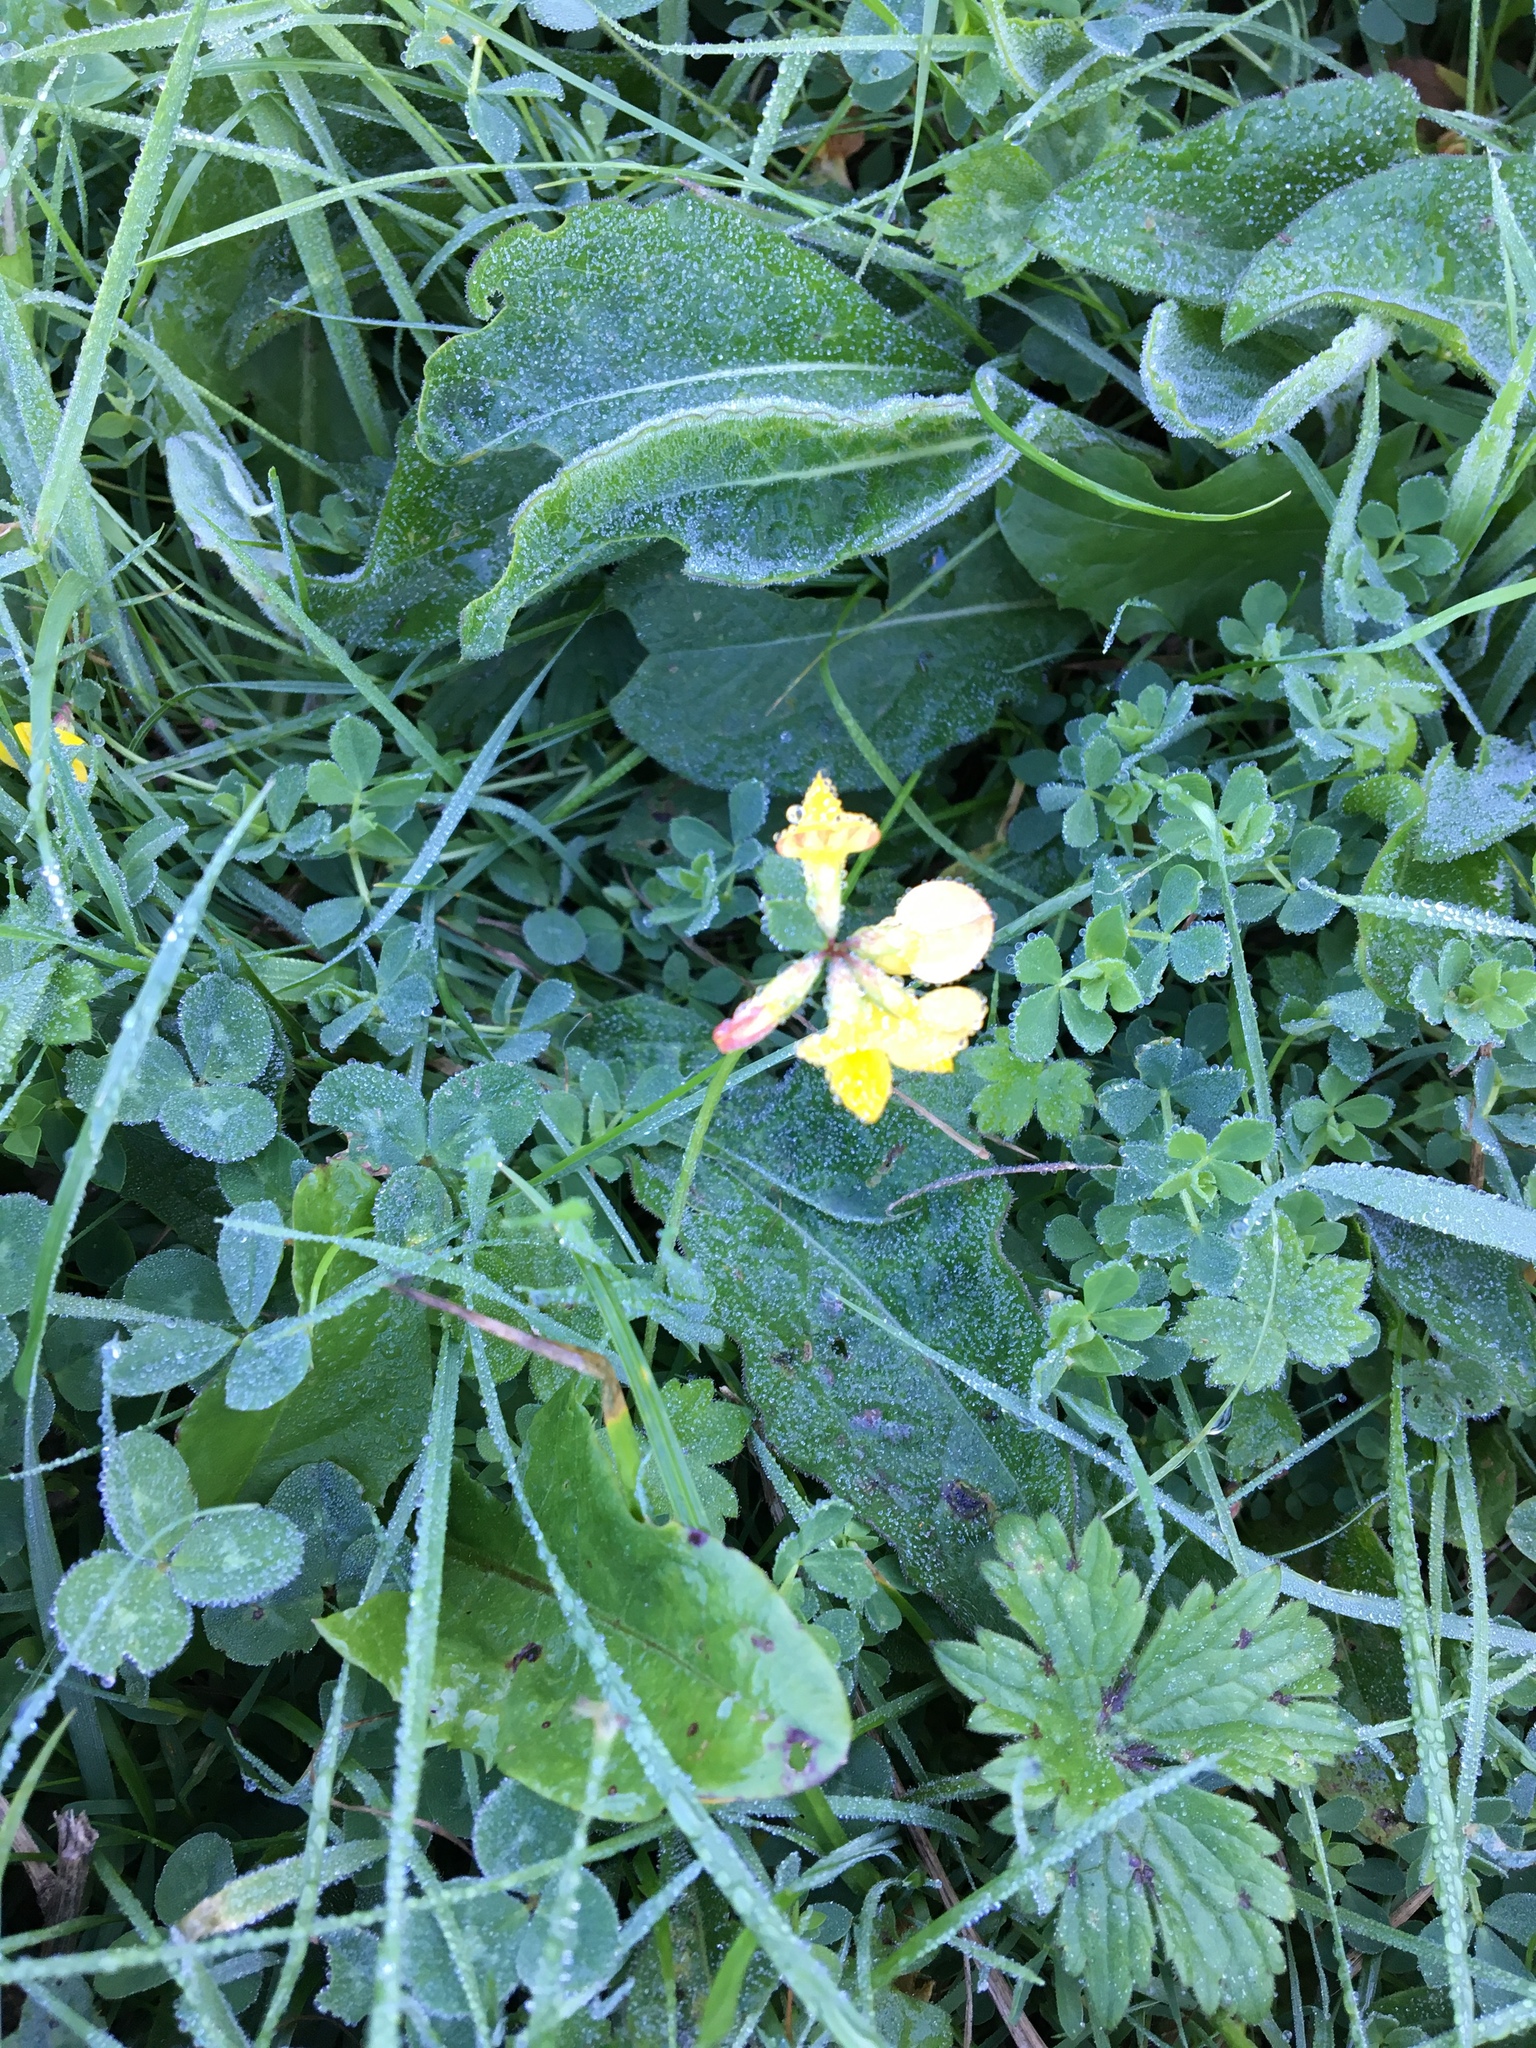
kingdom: Plantae
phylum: Tracheophyta
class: Magnoliopsida
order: Fabales
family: Fabaceae
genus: Lotus
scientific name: Lotus corniculatus
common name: Common bird's-foot-trefoil
